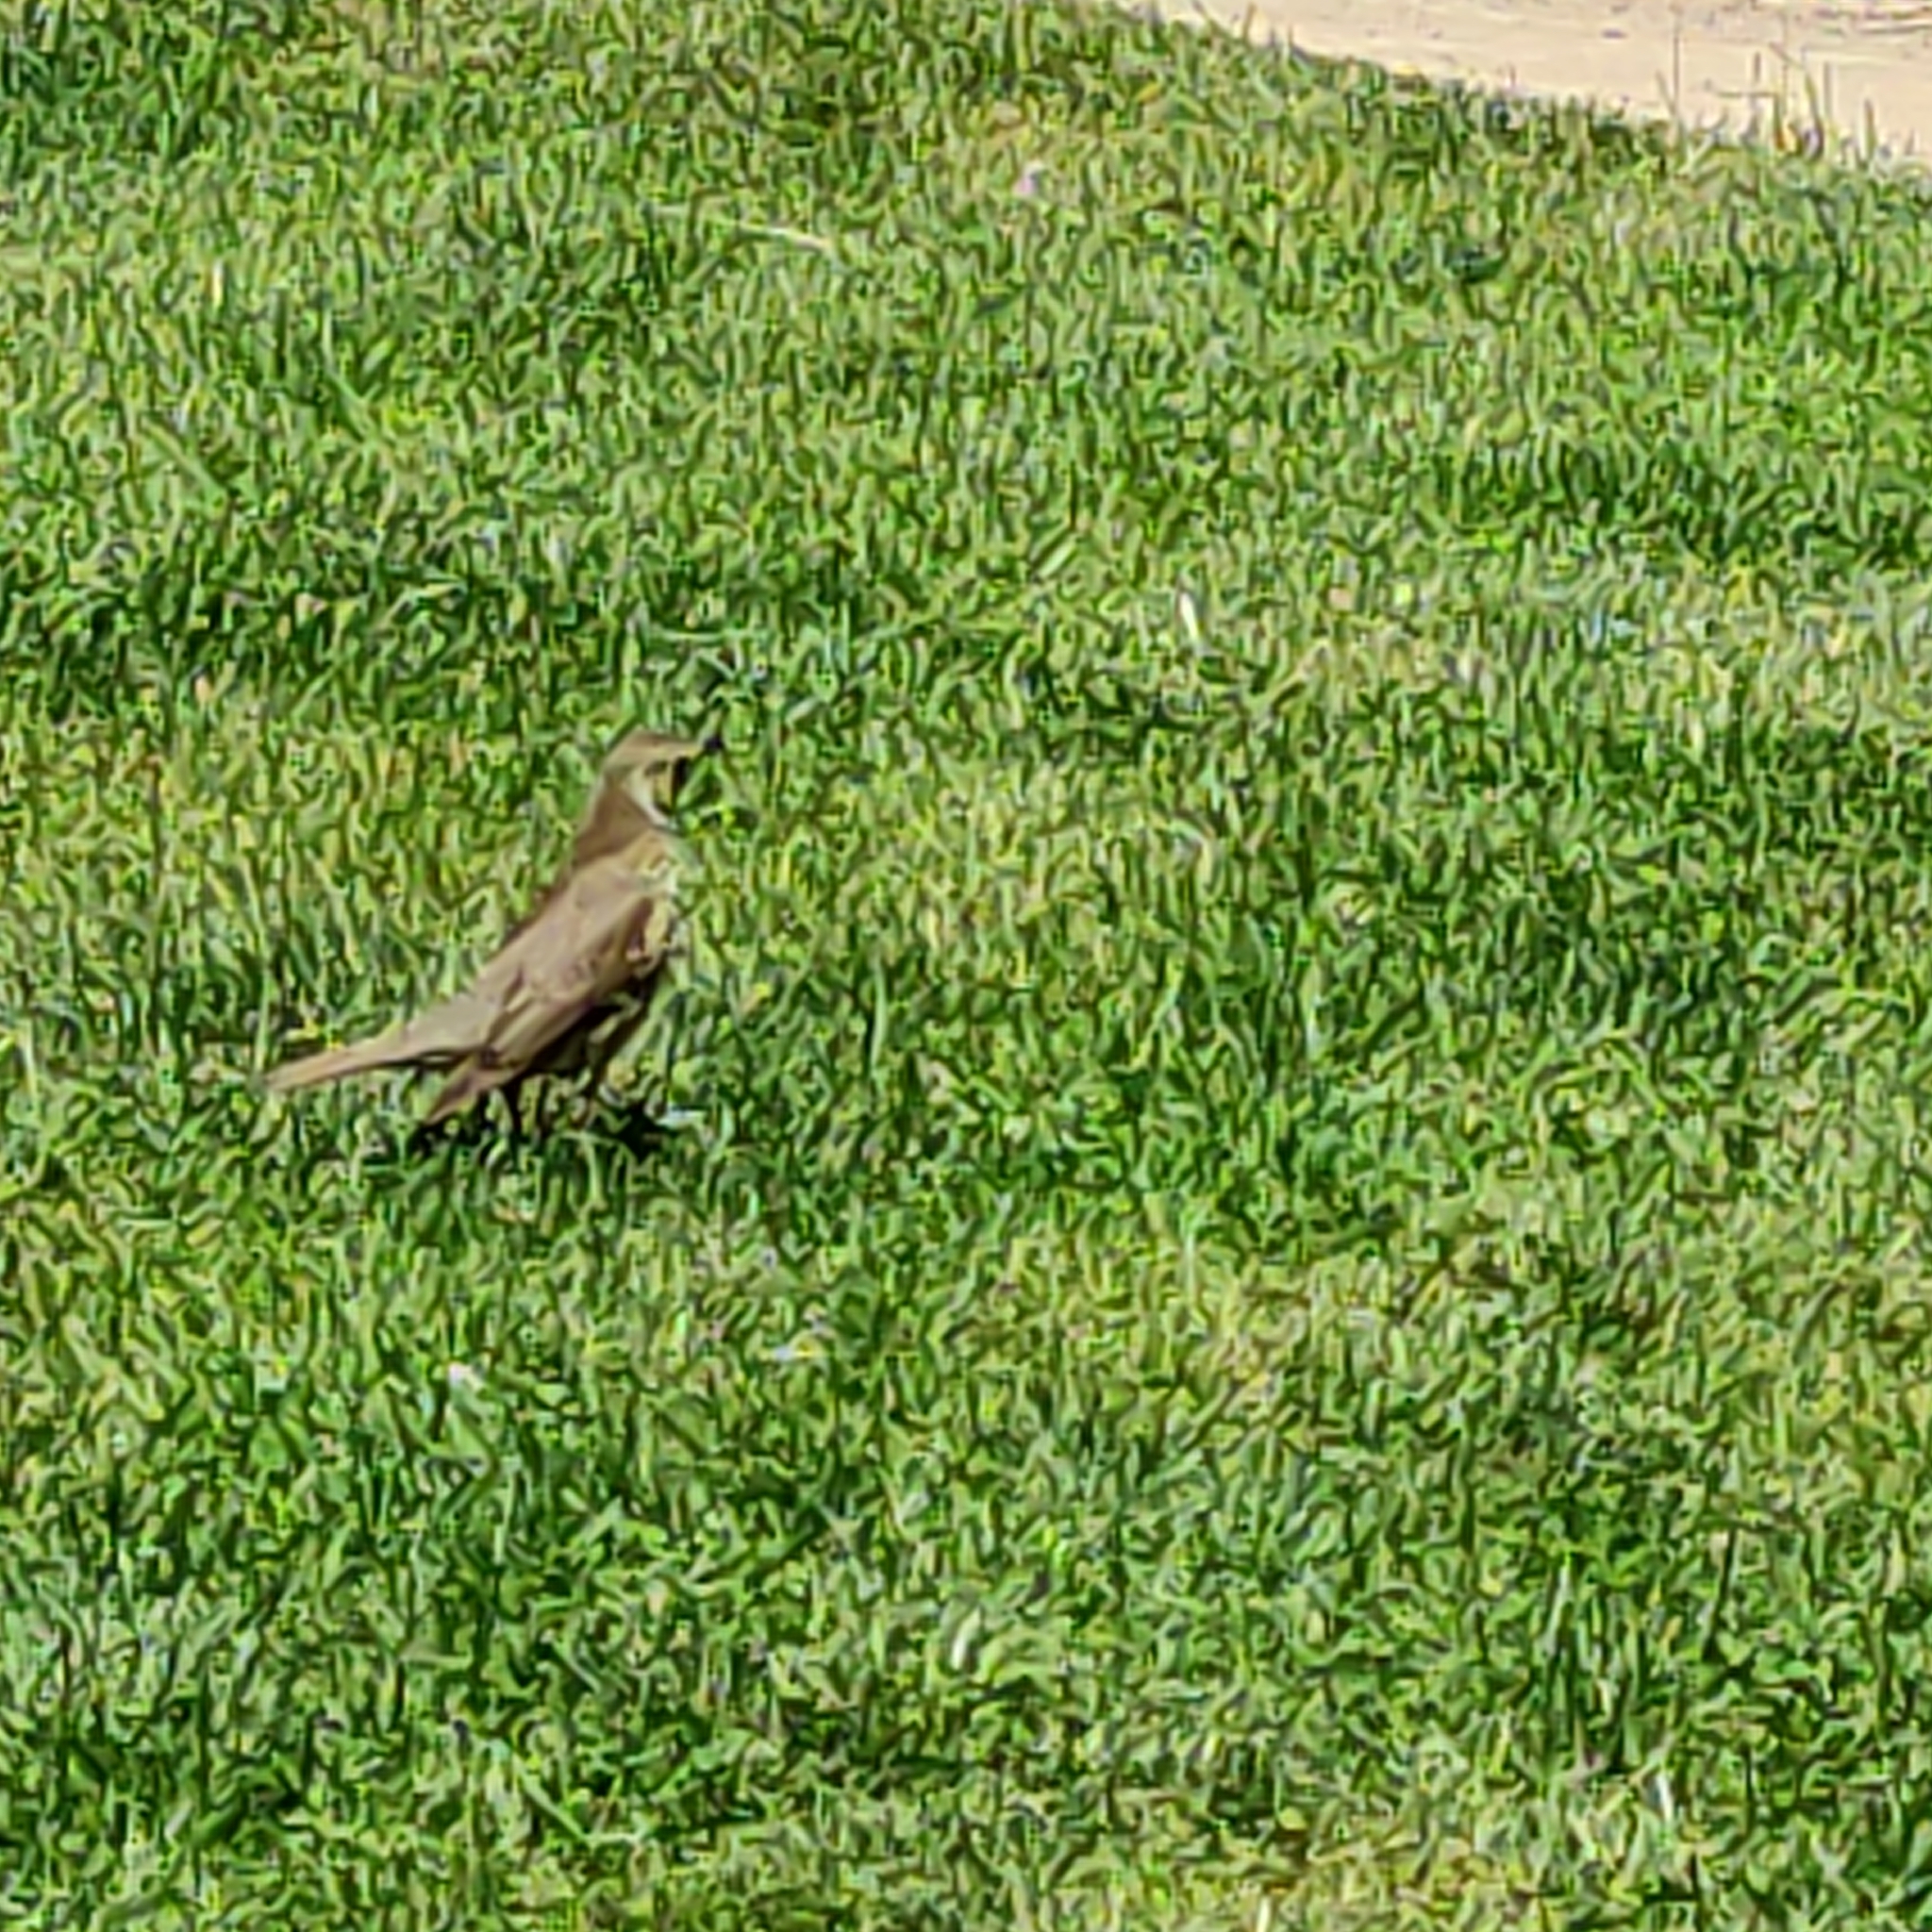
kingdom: Animalia
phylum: Chordata
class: Aves
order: Passeriformes
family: Turdidae
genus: Turdus
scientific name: Turdus philomelos
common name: Song thrush
